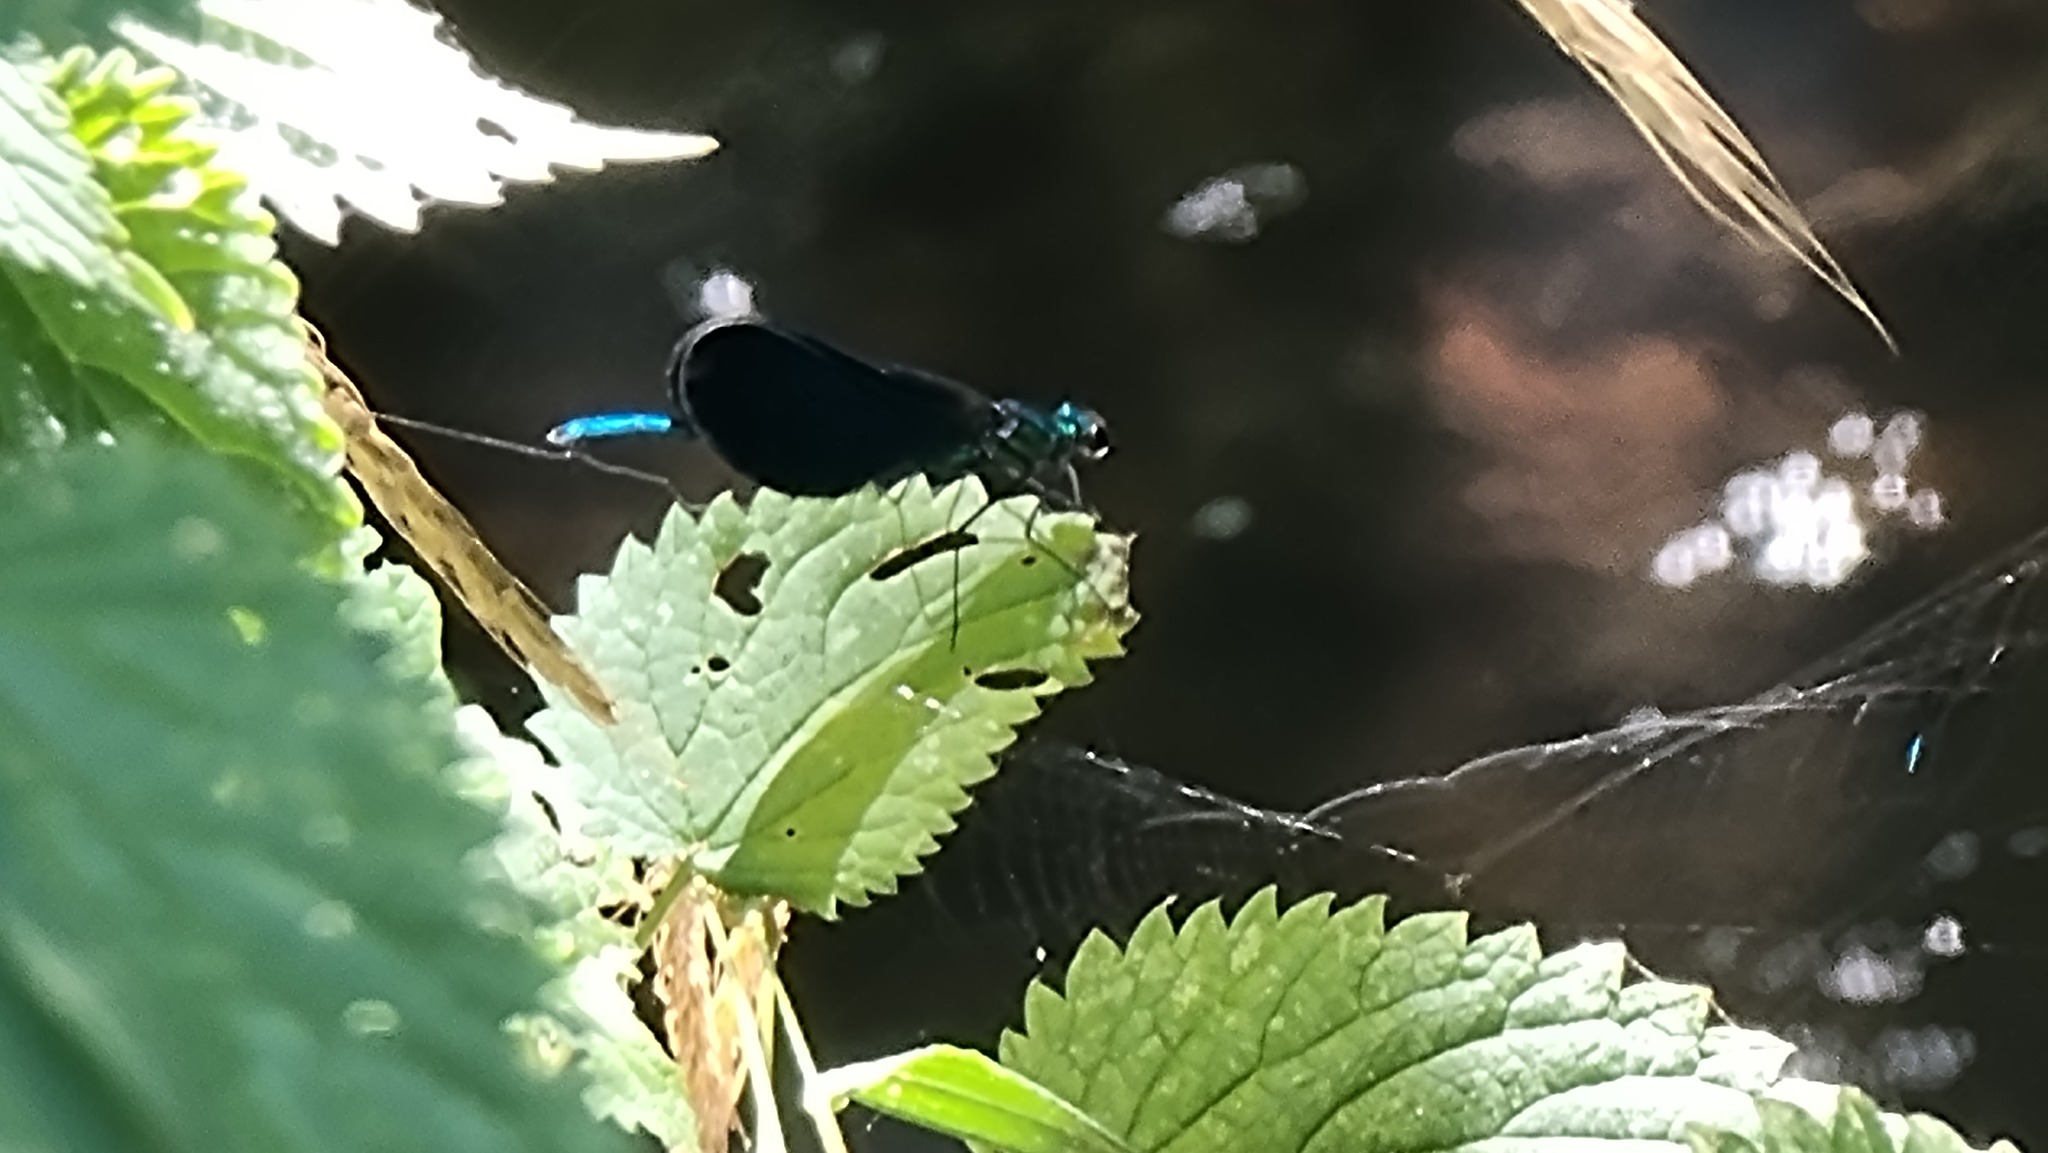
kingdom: Animalia
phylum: Arthropoda
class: Insecta
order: Odonata
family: Calopterygidae
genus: Calopteryx
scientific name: Calopteryx virgo
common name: Beautiful demoiselle
